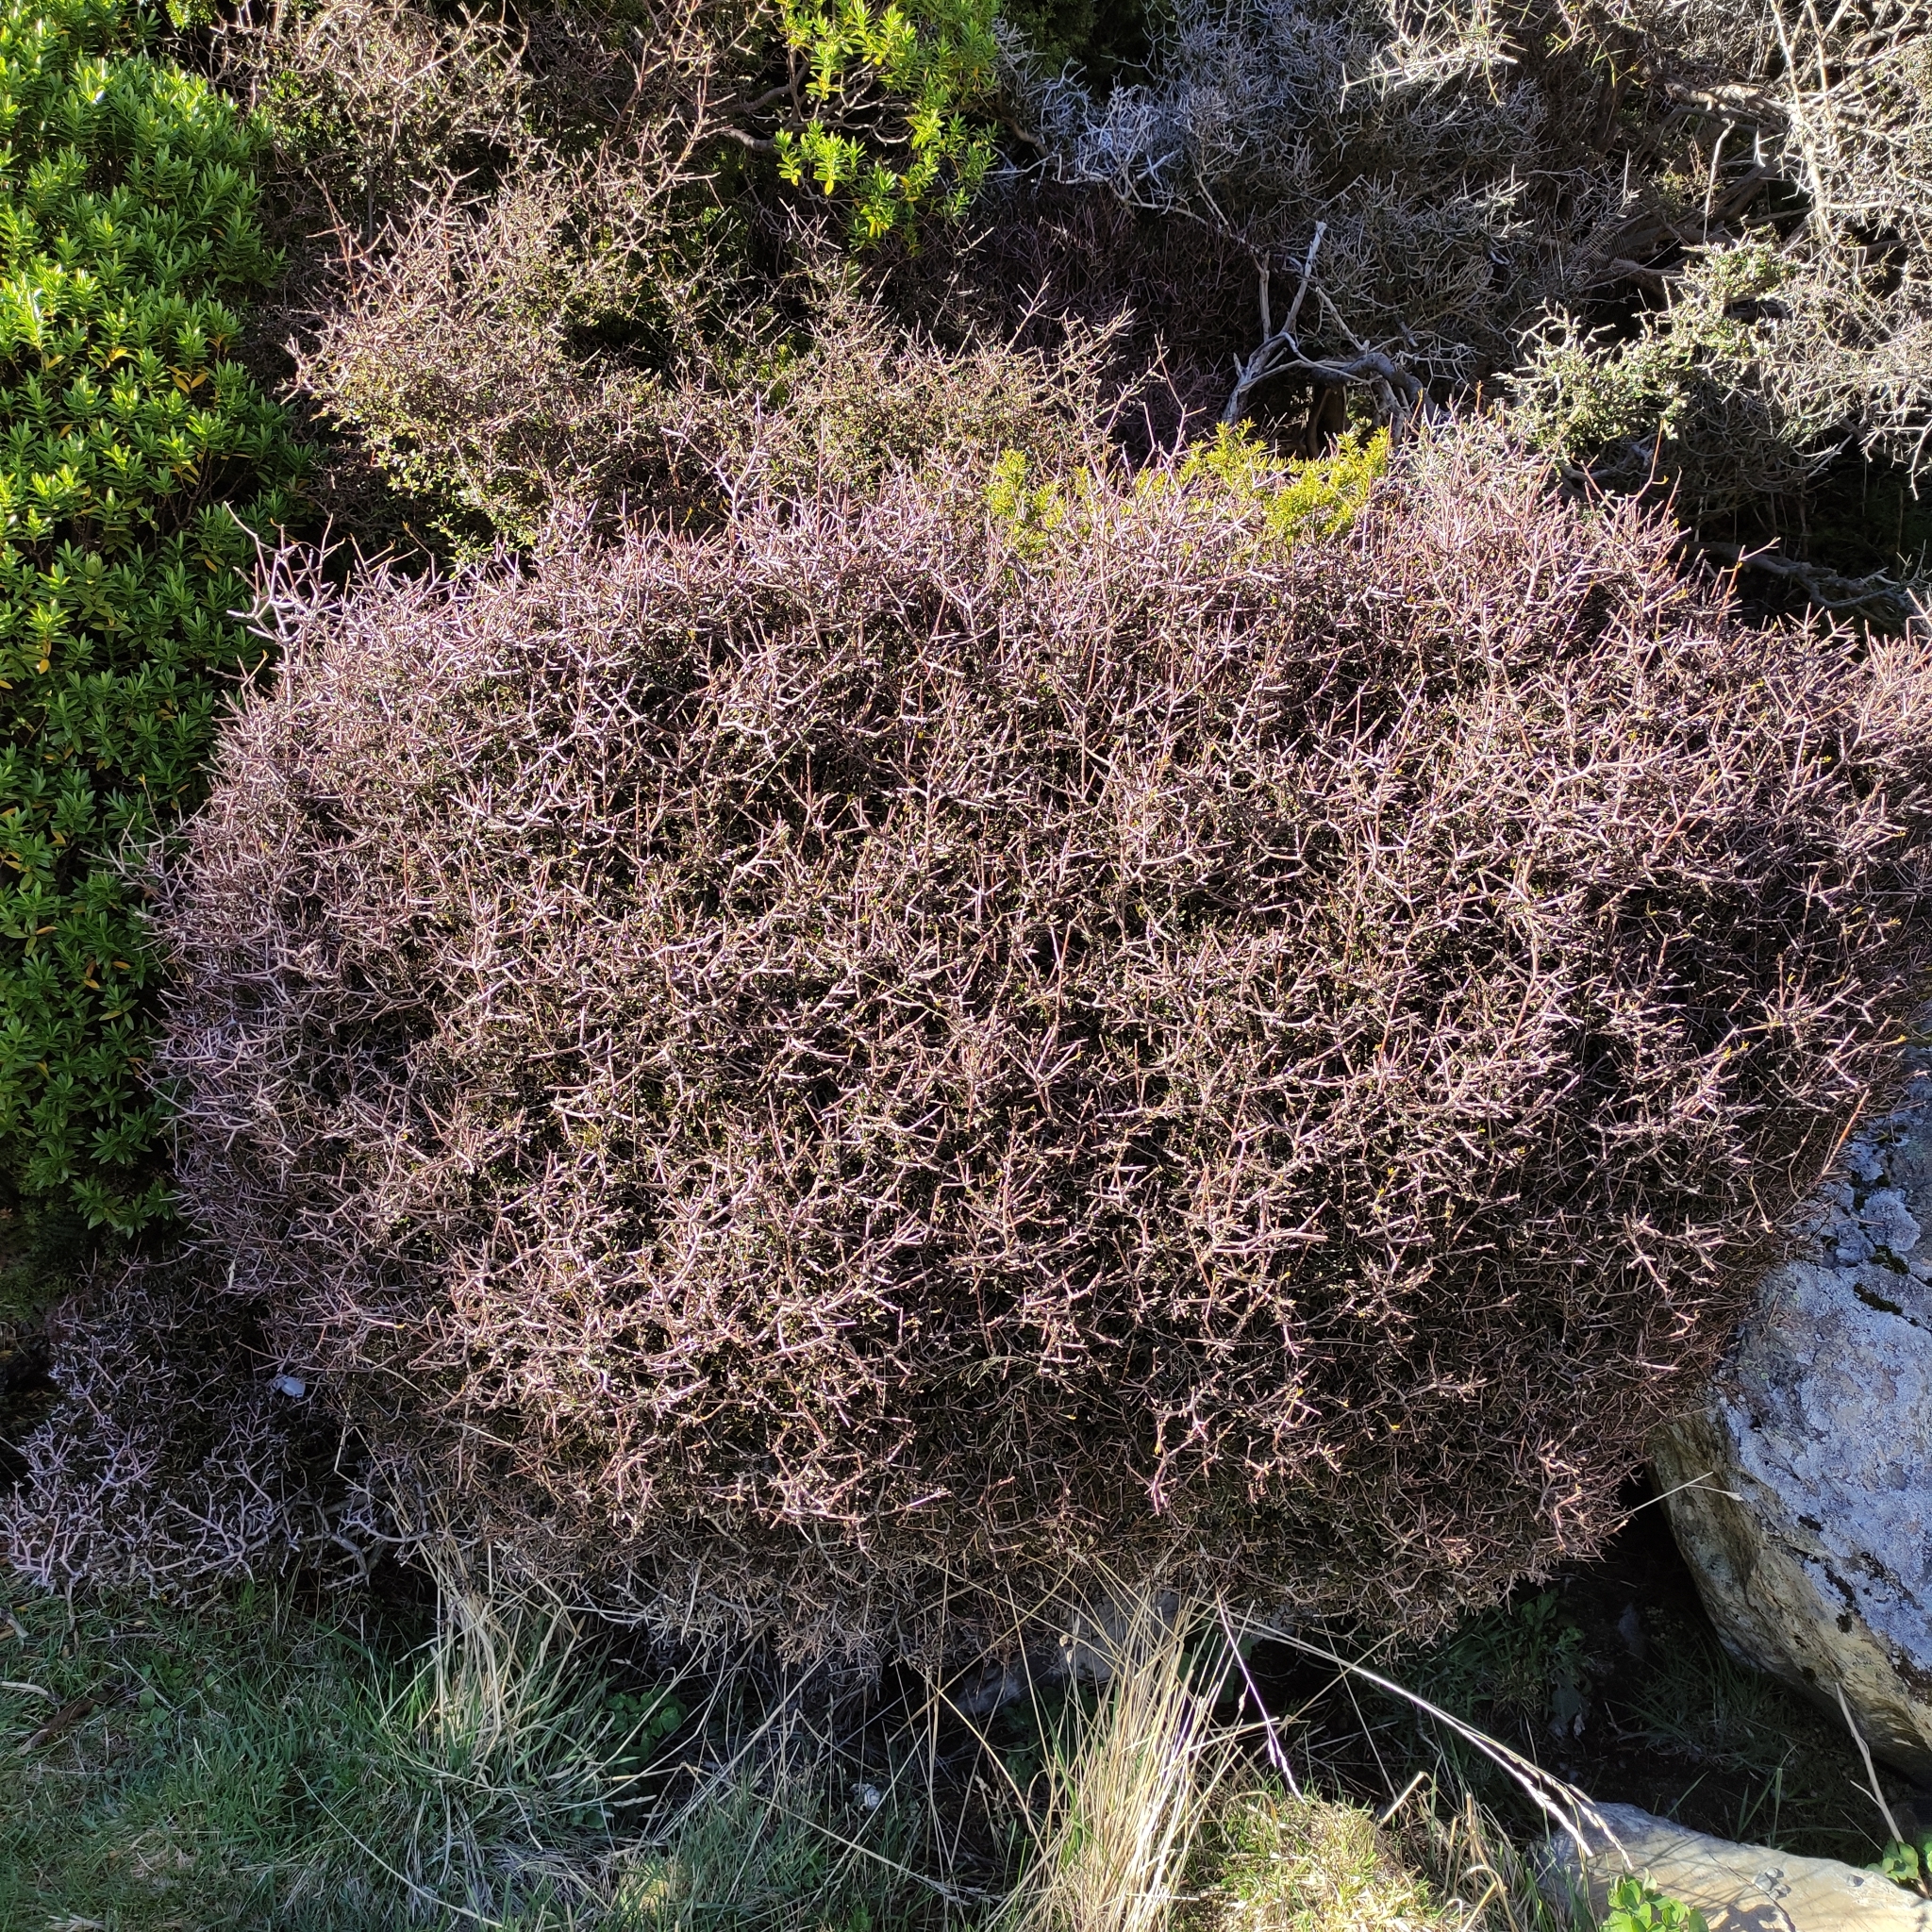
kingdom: Plantae
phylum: Tracheophyta
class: Magnoliopsida
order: Apiales
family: Pittosporaceae
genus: Pittosporum
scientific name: Pittosporum anomalum
